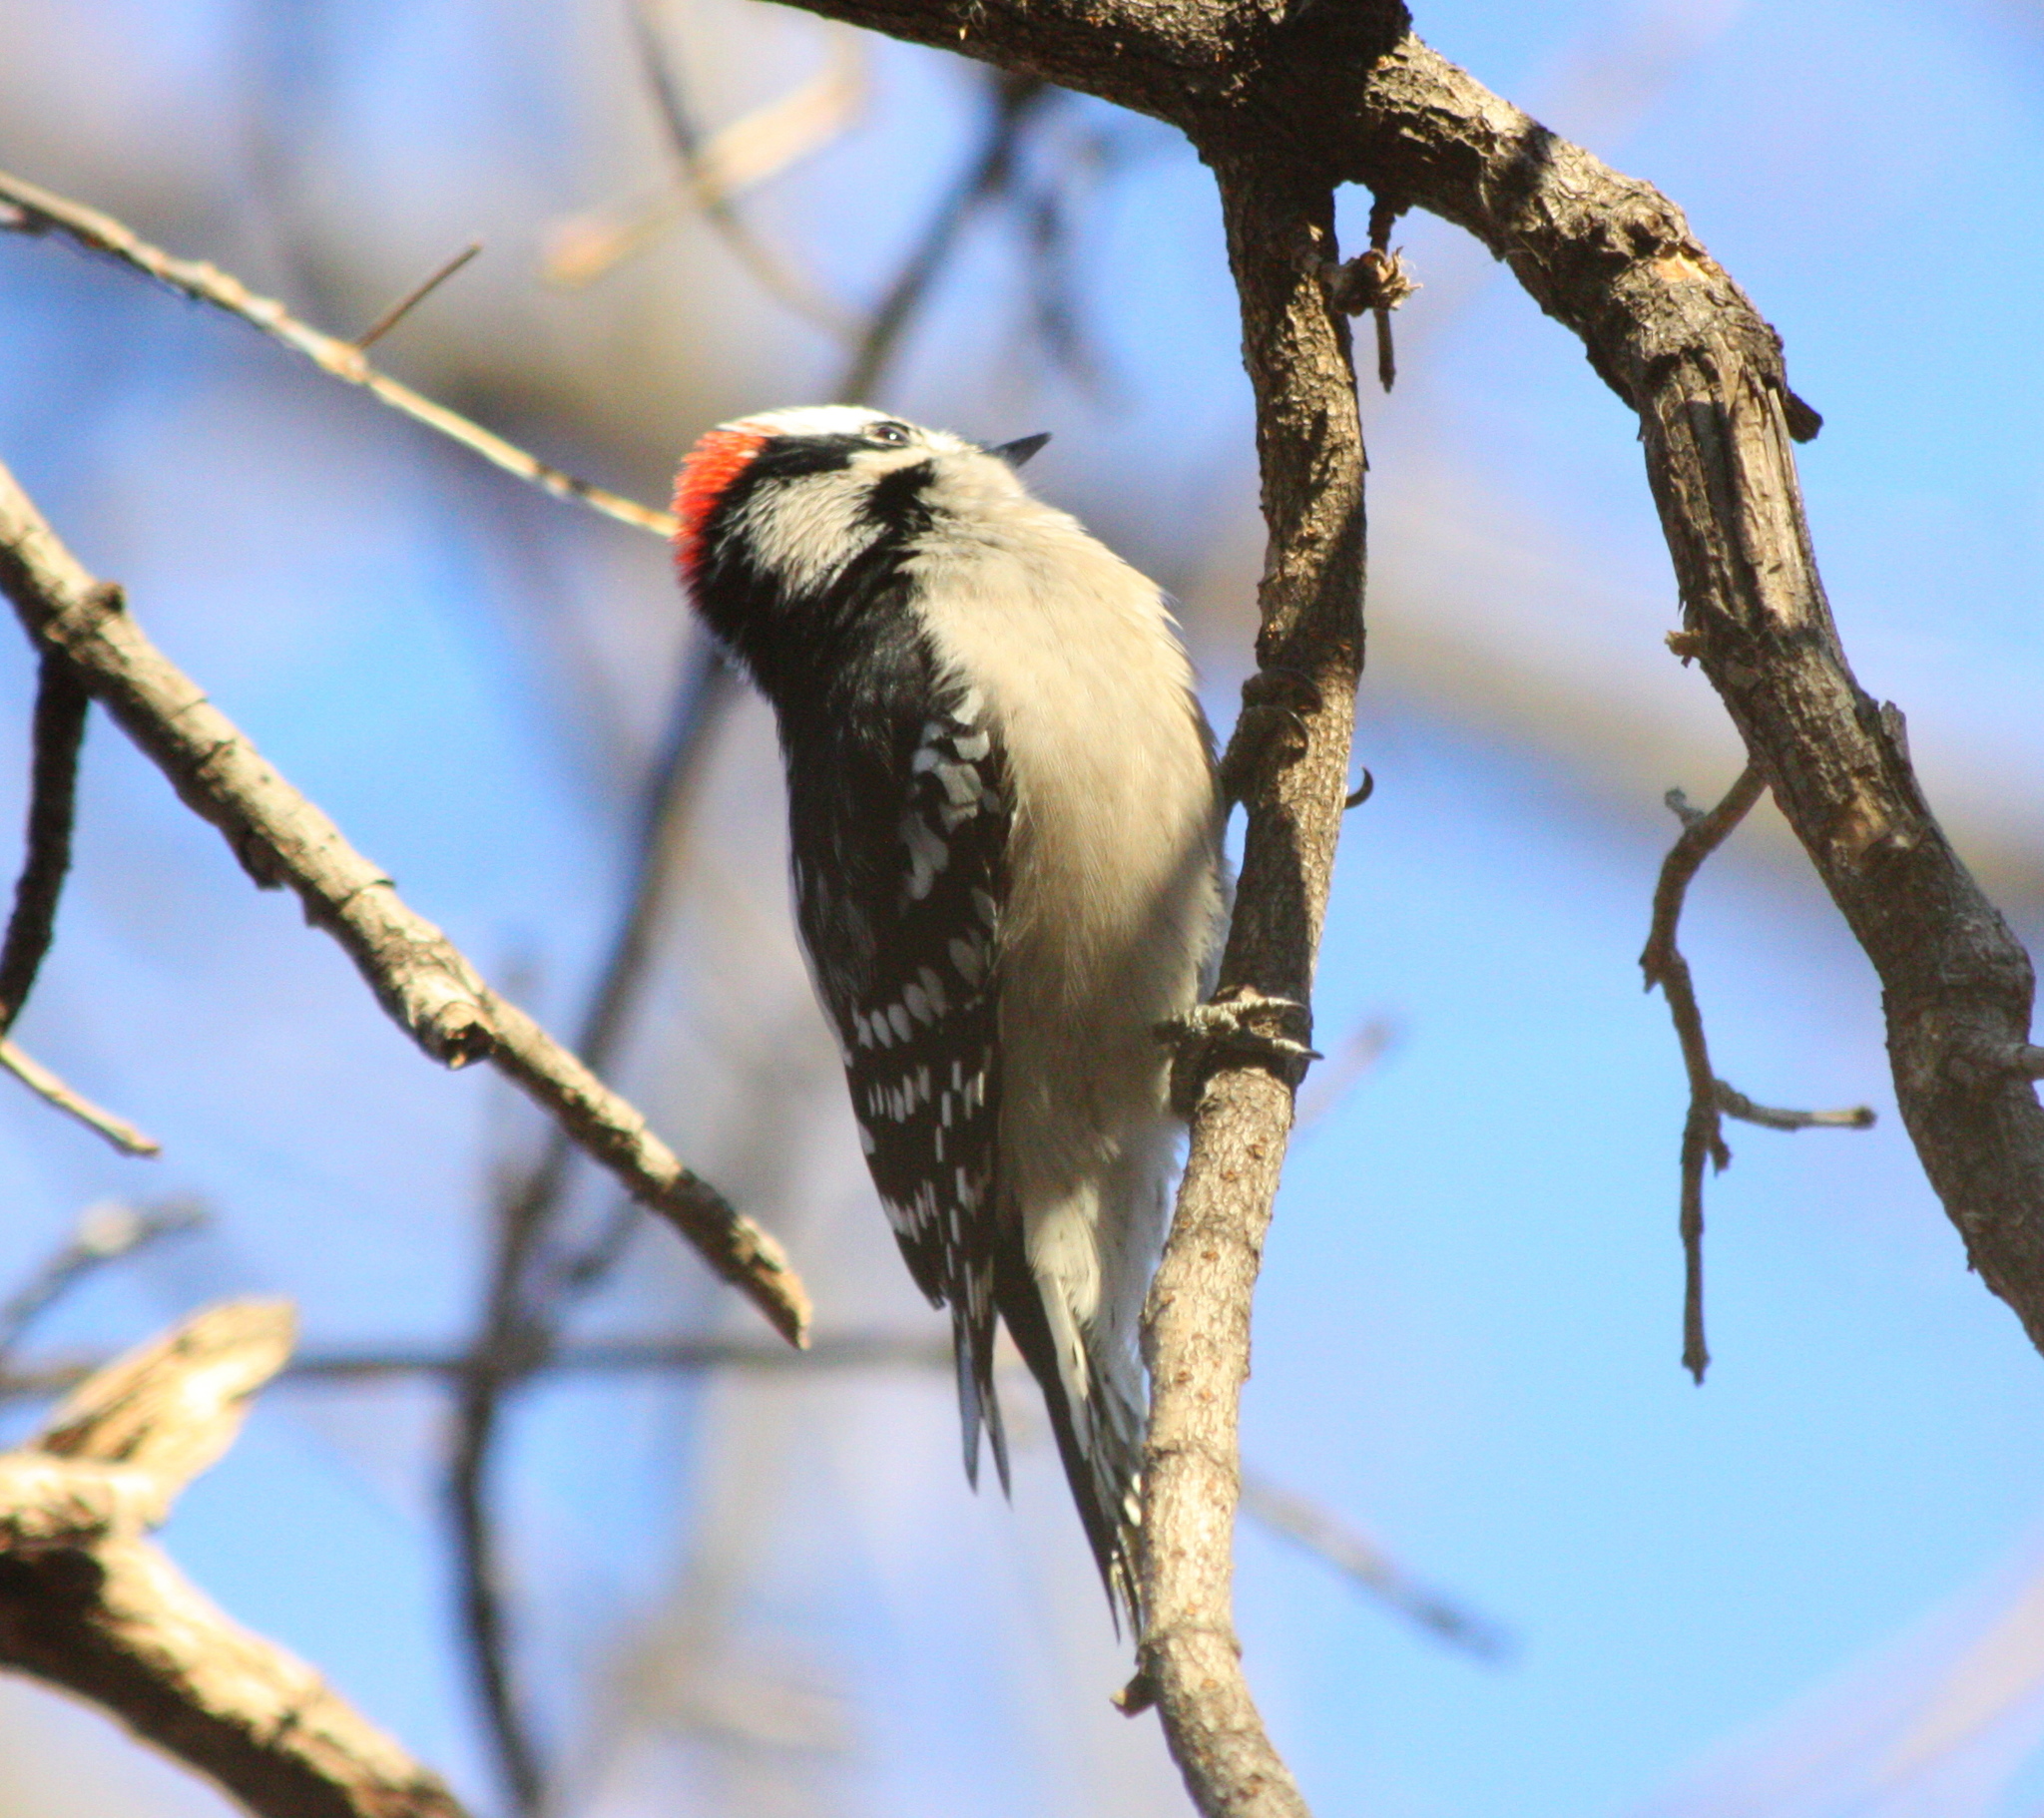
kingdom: Animalia
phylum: Chordata
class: Aves
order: Piciformes
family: Picidae
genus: Dryobates
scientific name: Dryobates pubescens
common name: Downy woodpecker
